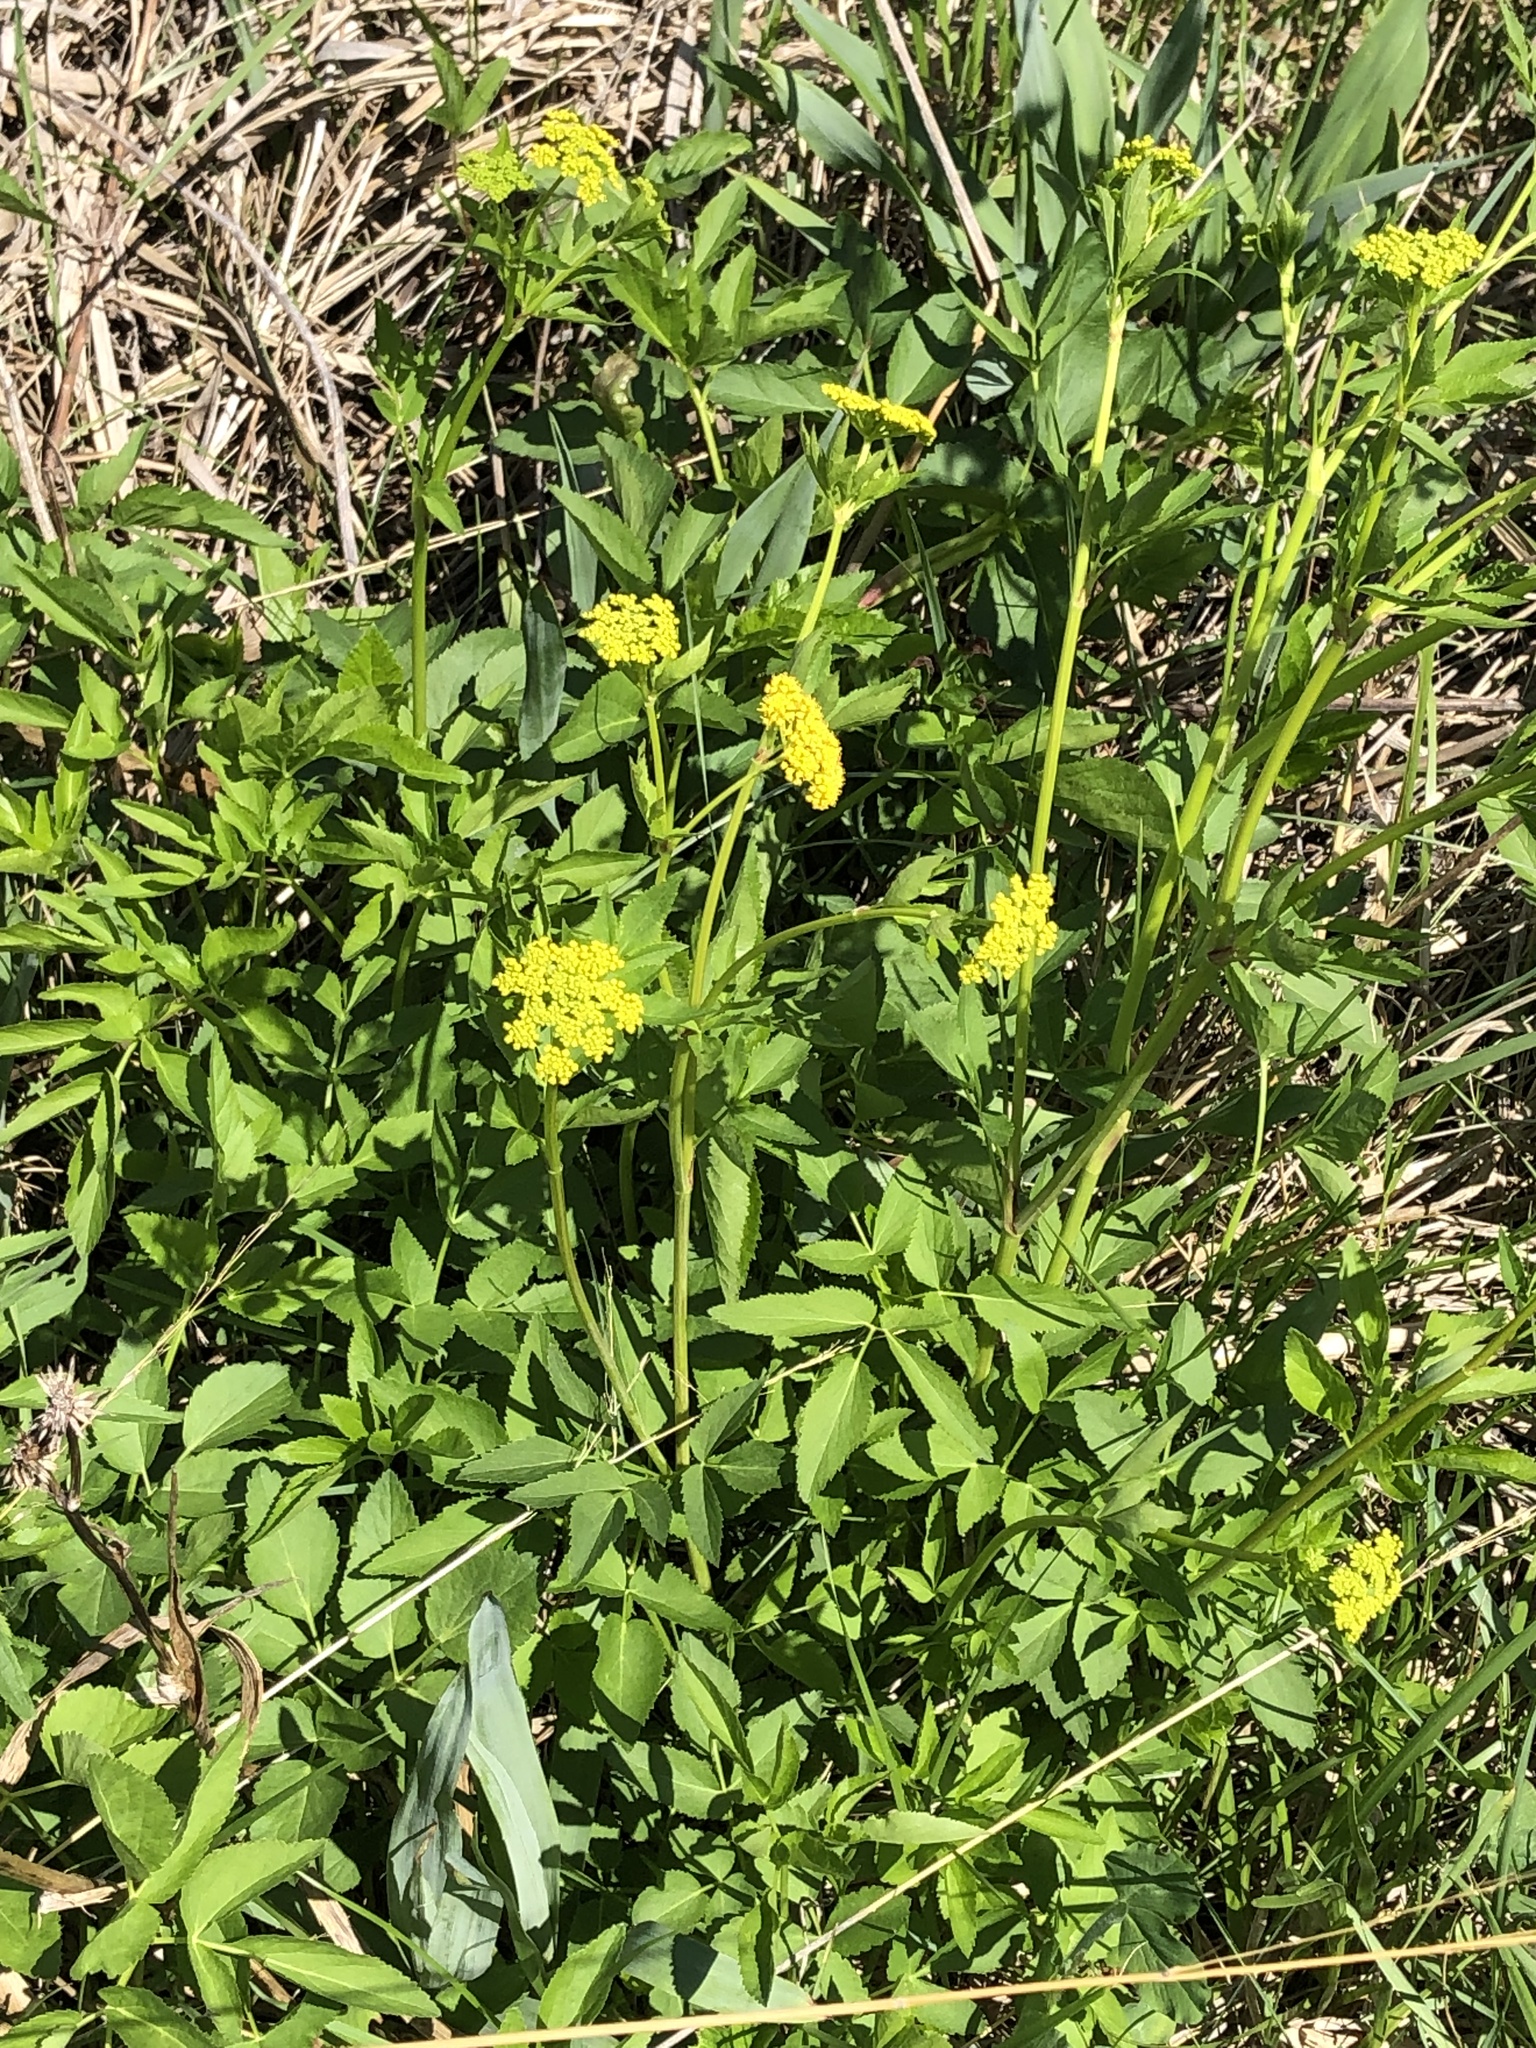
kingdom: Plantae
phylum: Tracheophyta
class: Magnoliopsida
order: Apiales
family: Apiaceae
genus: Zizia
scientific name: Zizia aurea
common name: Golden alexanders
